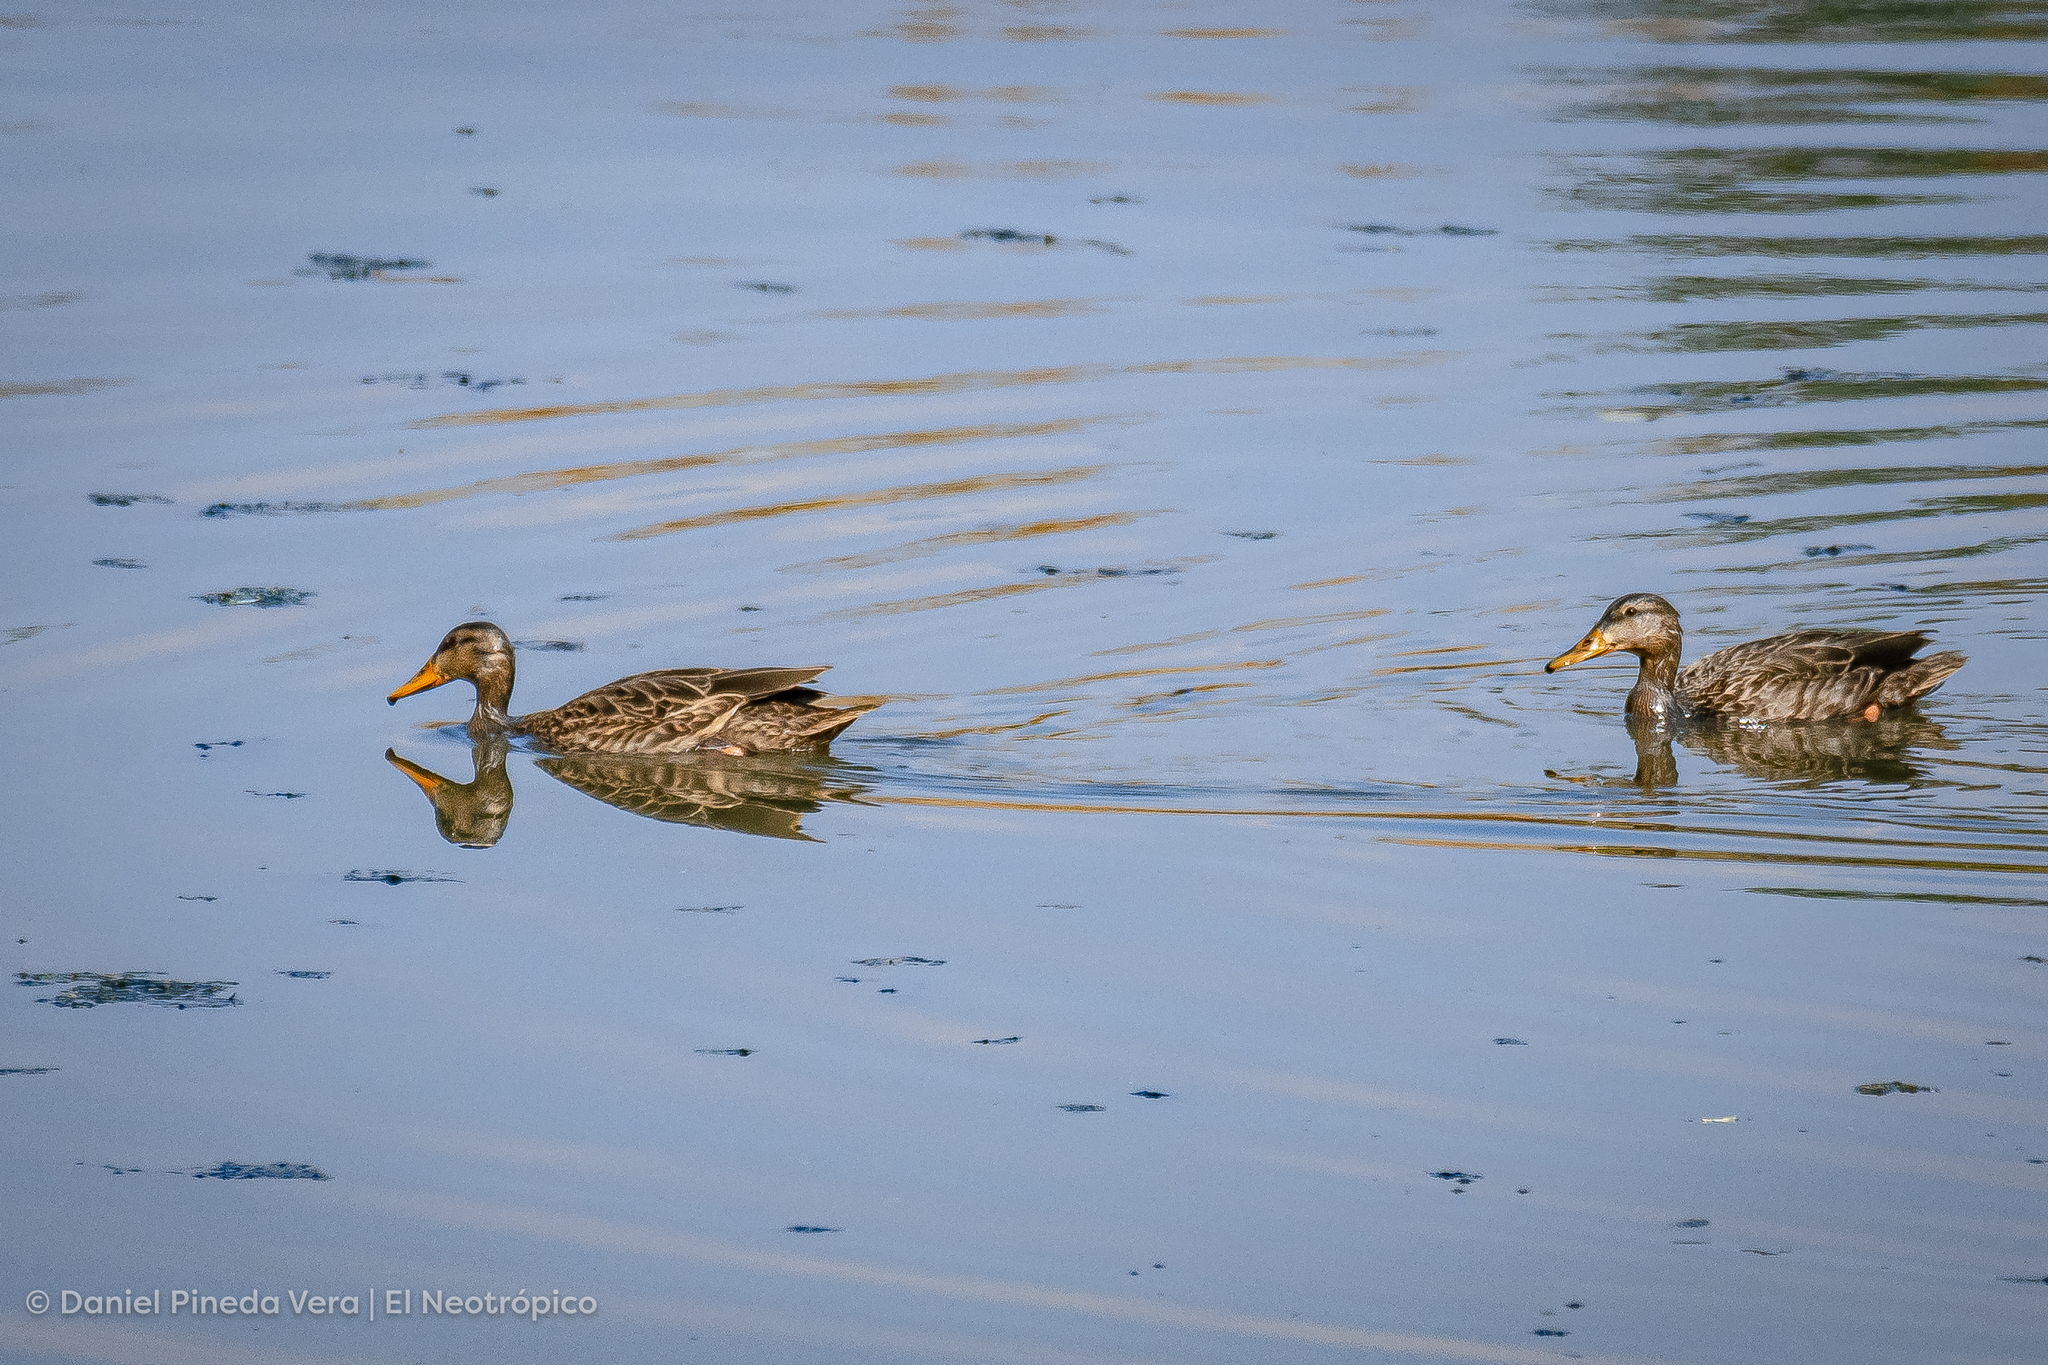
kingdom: Animalia
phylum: Chordata
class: Aves
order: Anseriformes
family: Anatidae
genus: Anas
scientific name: Anas diazi
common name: Mexican duck
